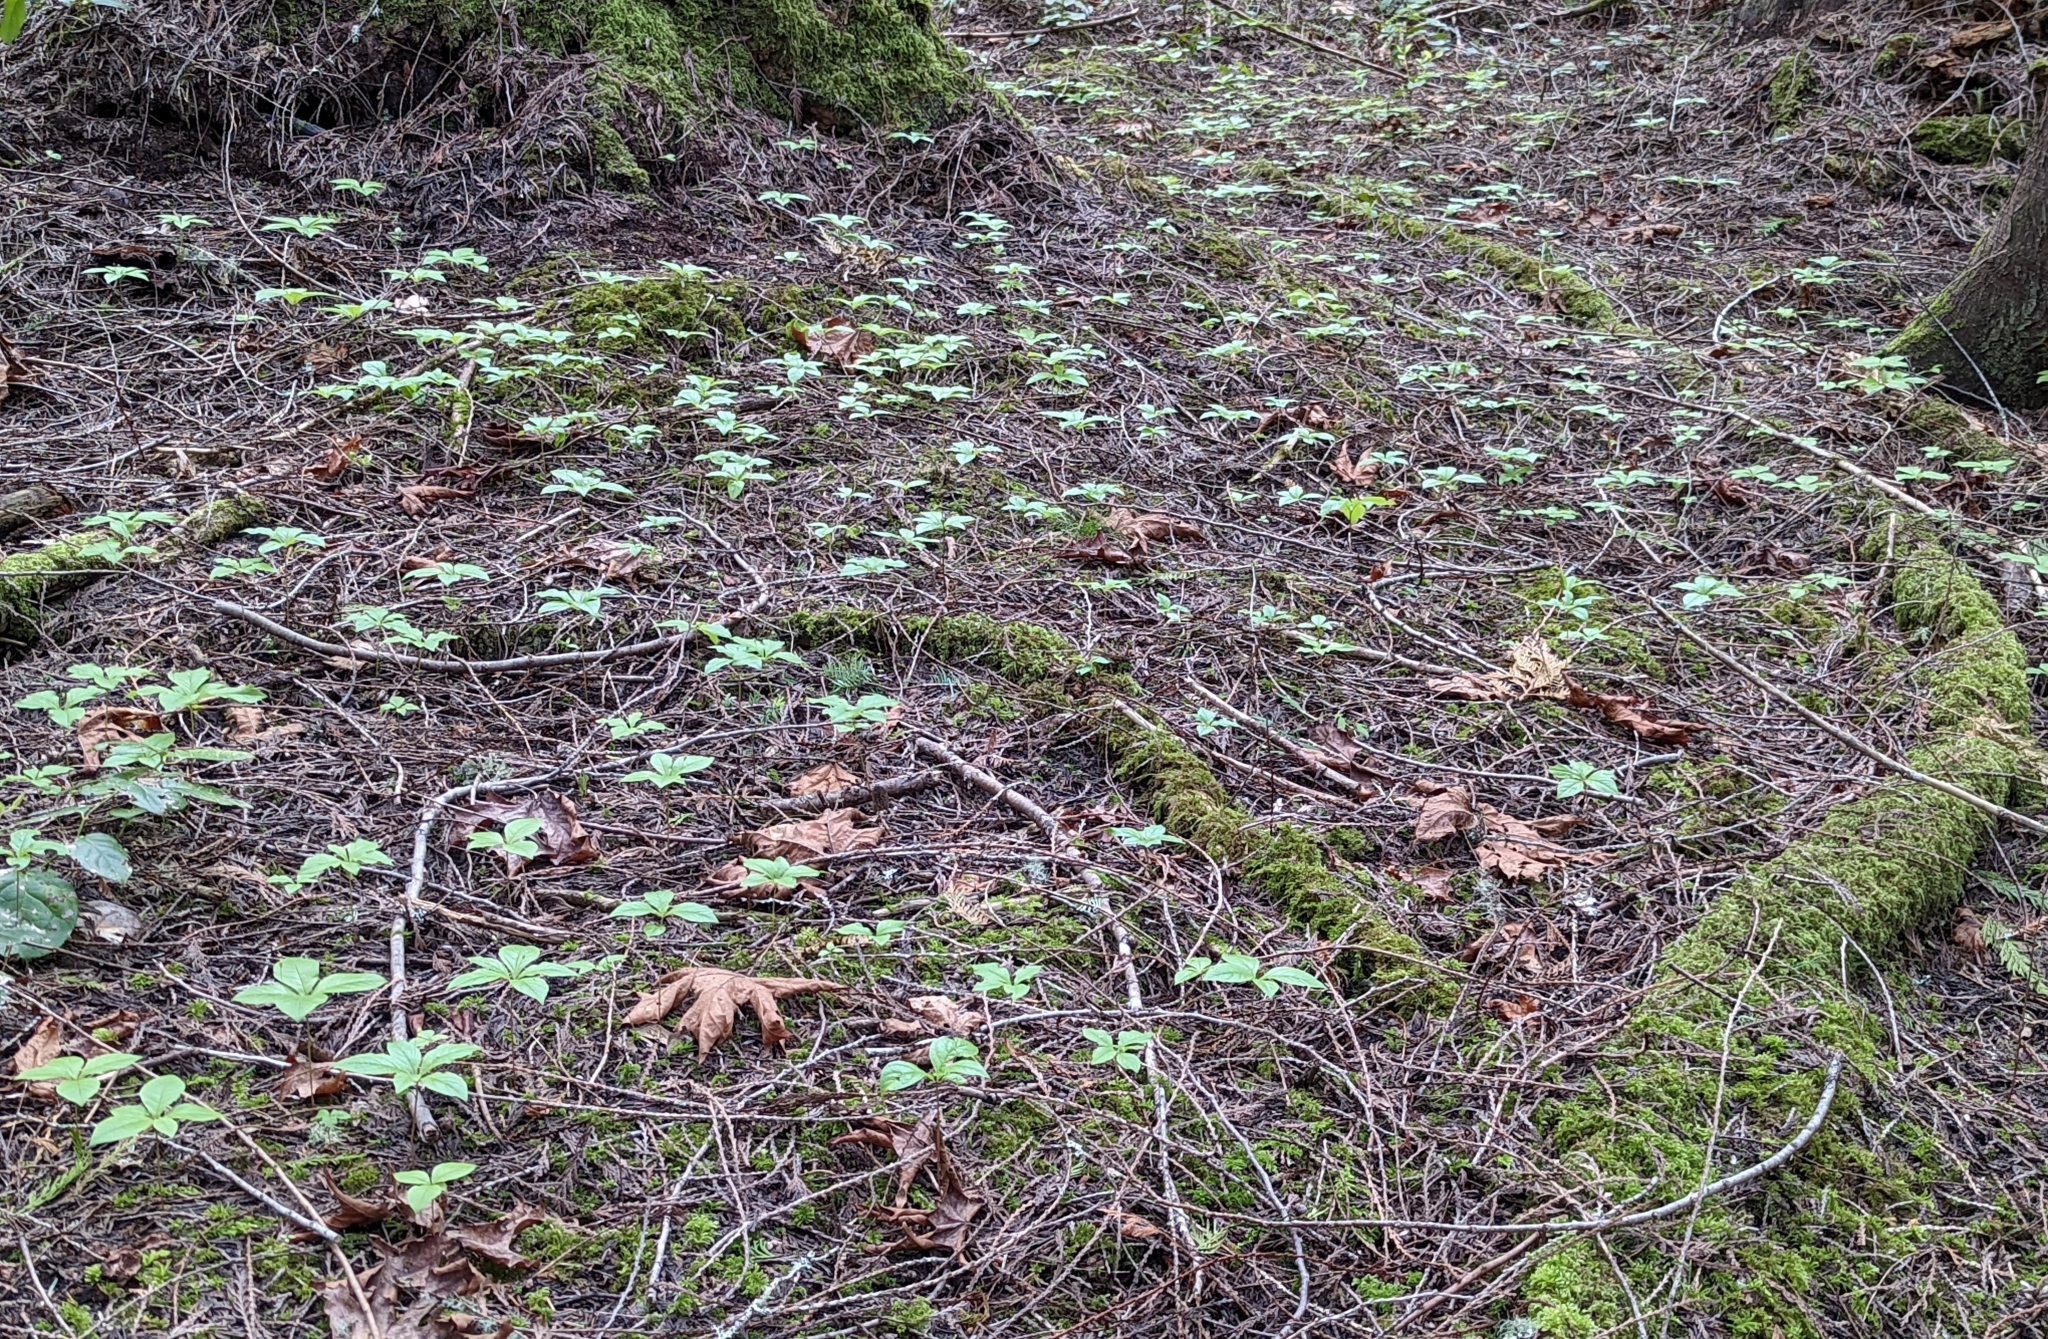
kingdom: Plantae
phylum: Tracheophyta
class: Magnoliopsida
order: Ericales
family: Primulaceae
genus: Lysimachia
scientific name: Lysimachia latifolia
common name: Pacific starflower
